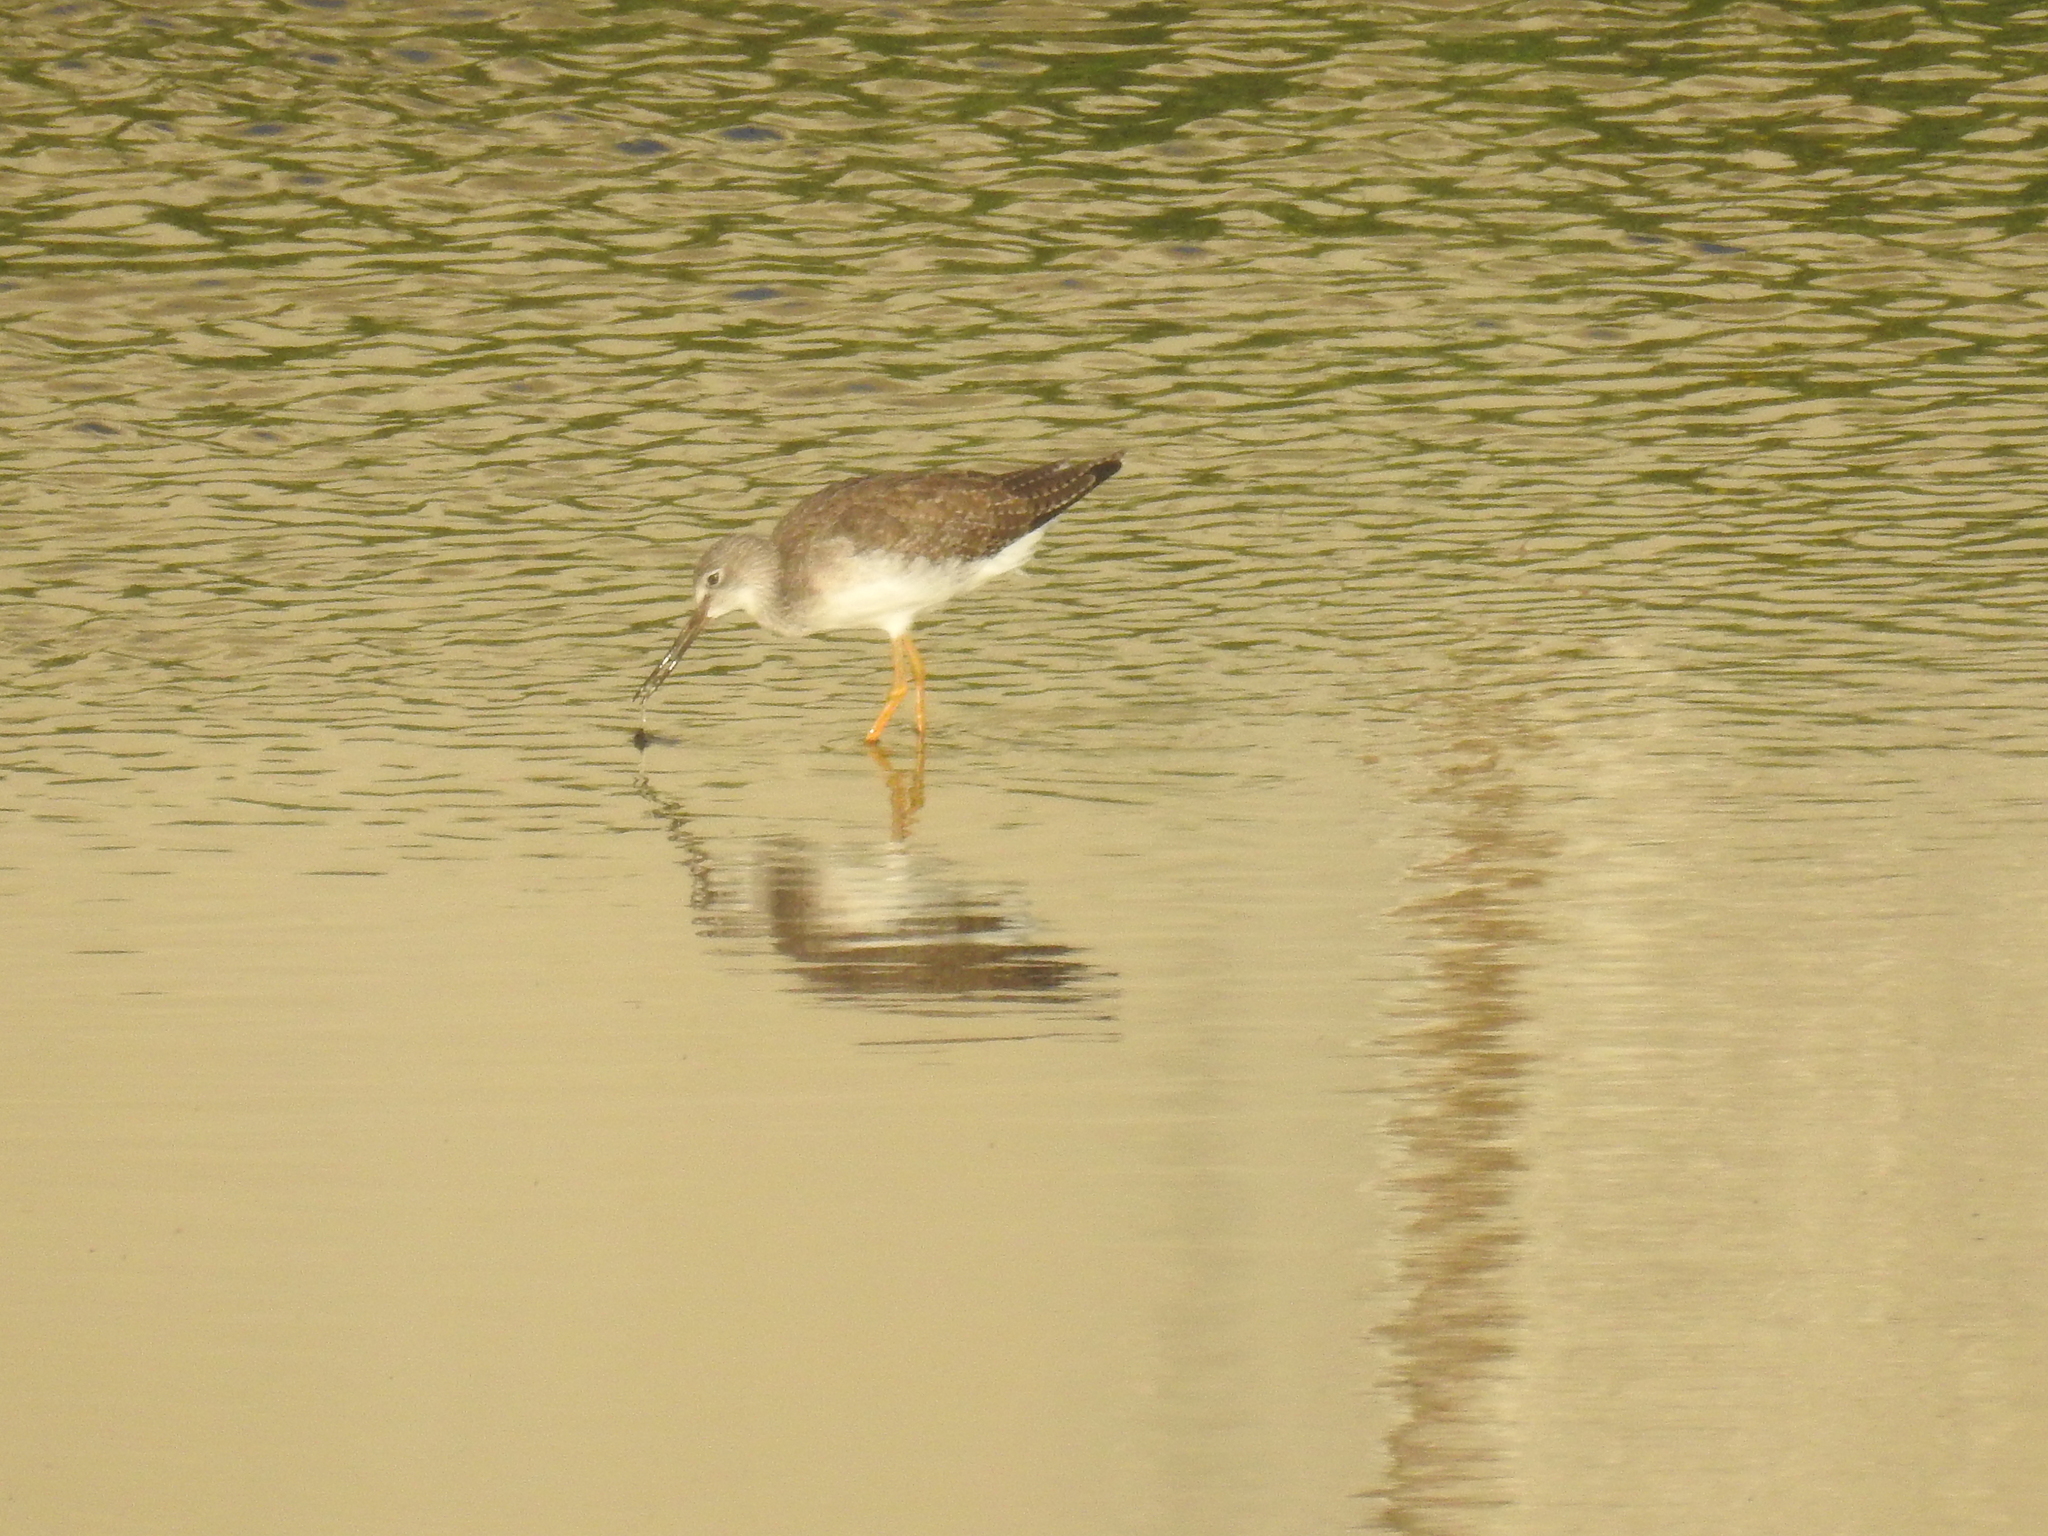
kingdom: Animalia
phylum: Chordata
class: Aves
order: Charadriiformes
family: Scolopacidae
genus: Tringa
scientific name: Tringa melanoleuca
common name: Greater yellowlegs
